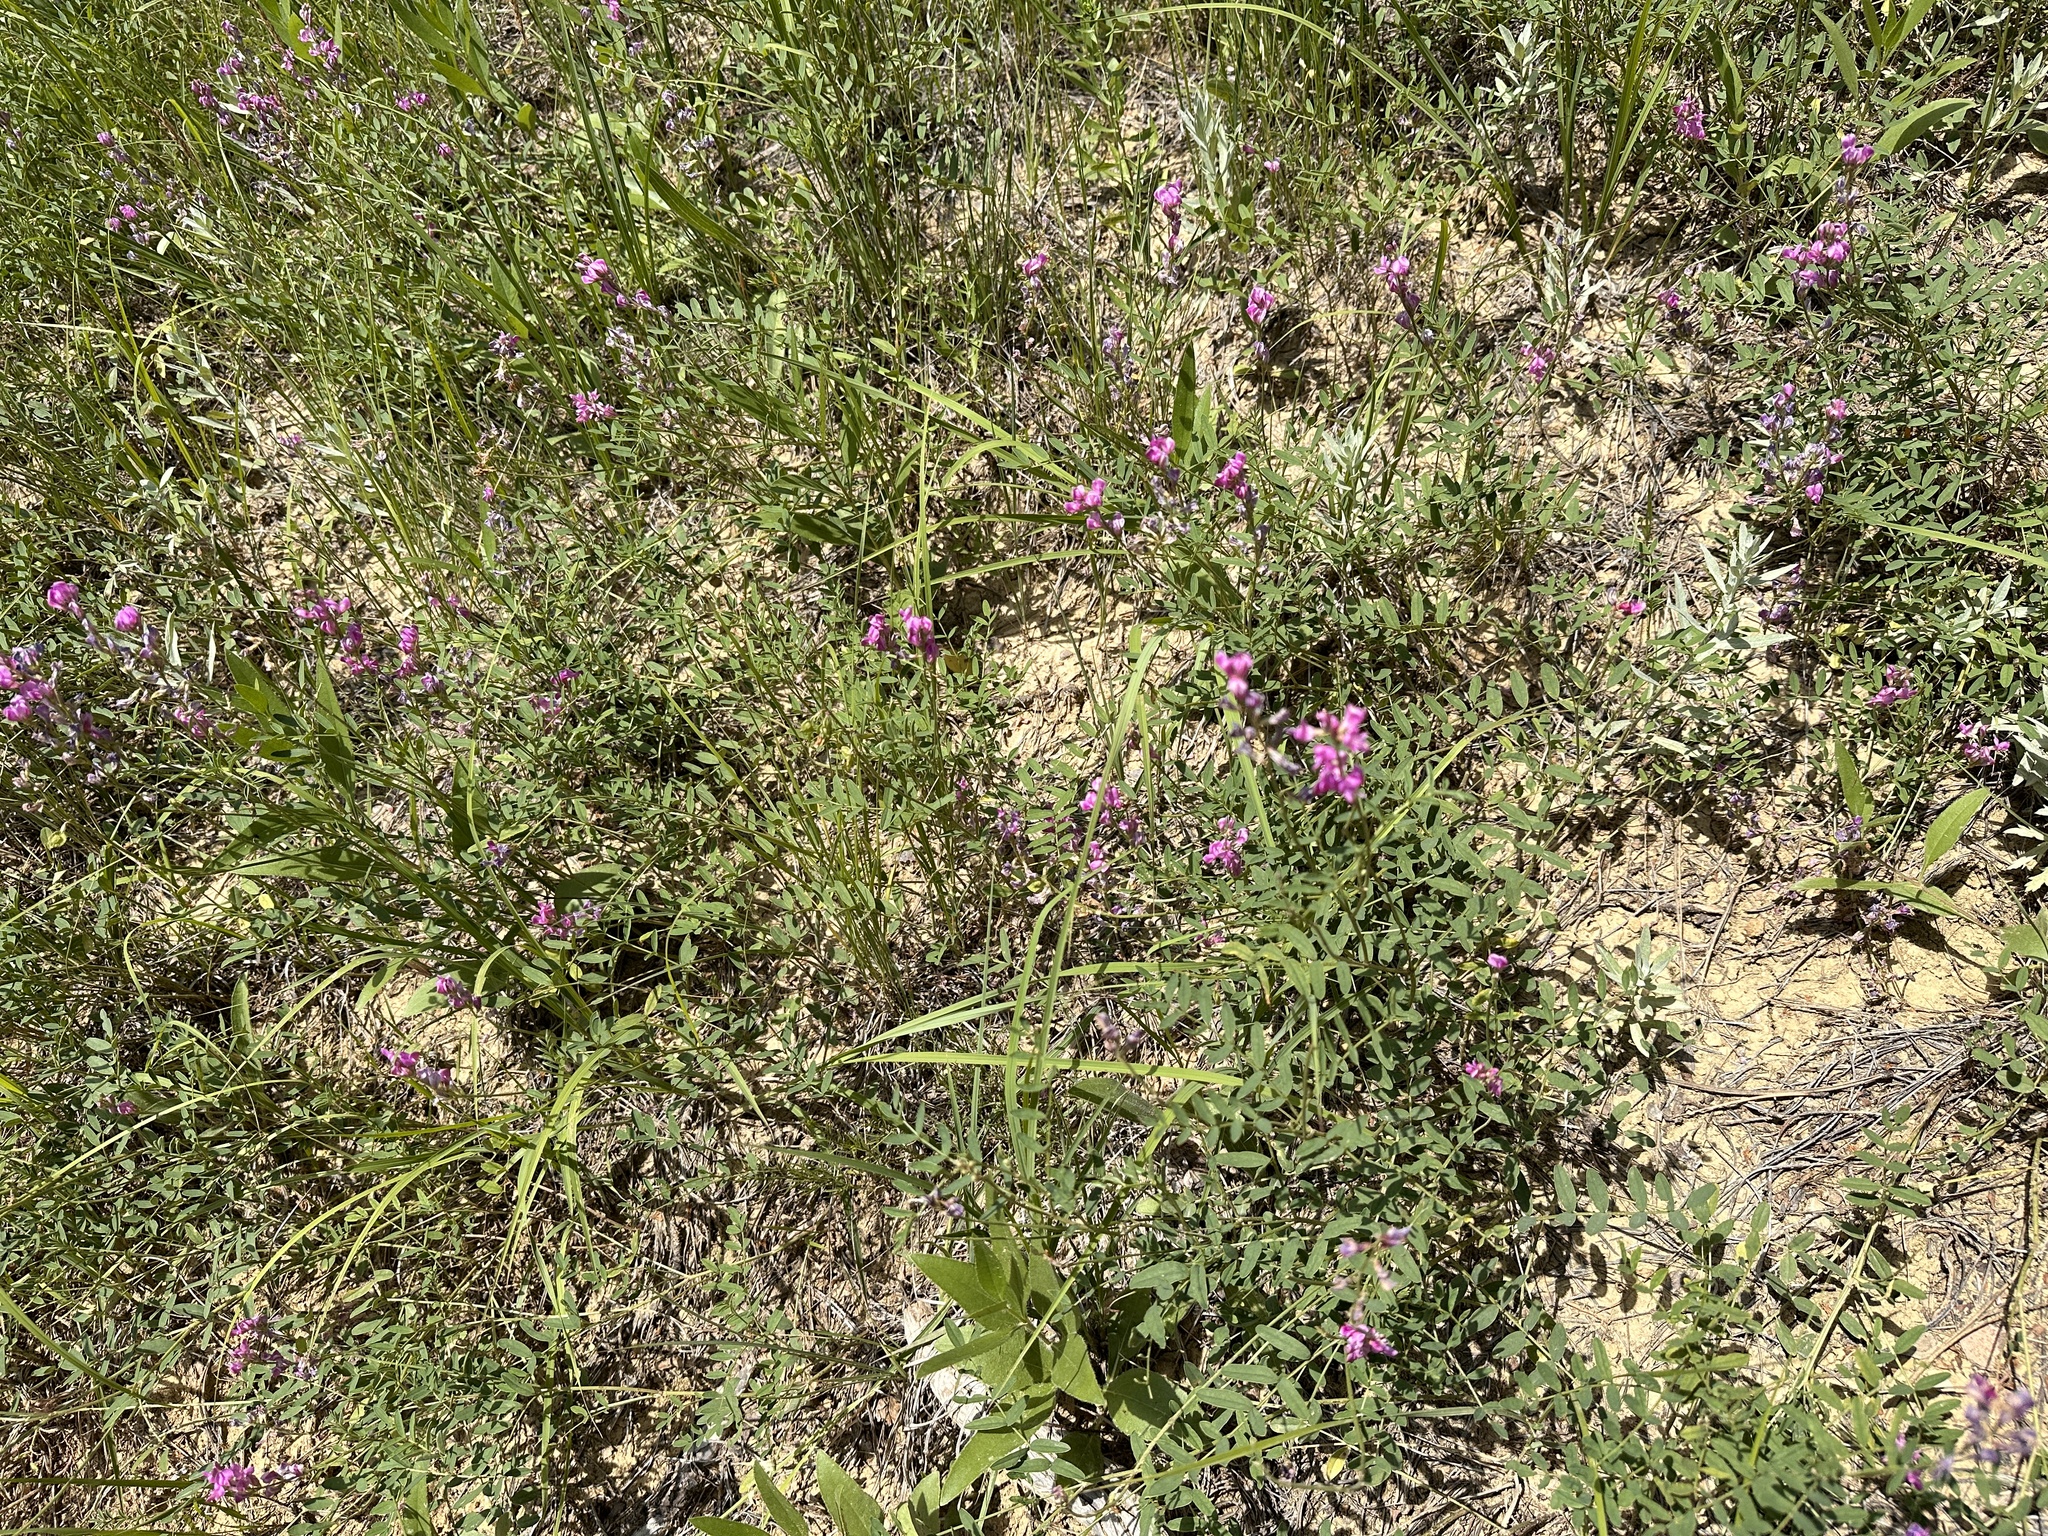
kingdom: Plantae
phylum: Tracheophyta
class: Magnoliopsida
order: Fabales
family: Fabaceae
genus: Hedysarum
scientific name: Hedysarum boreale
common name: Northern sweet-vetch
